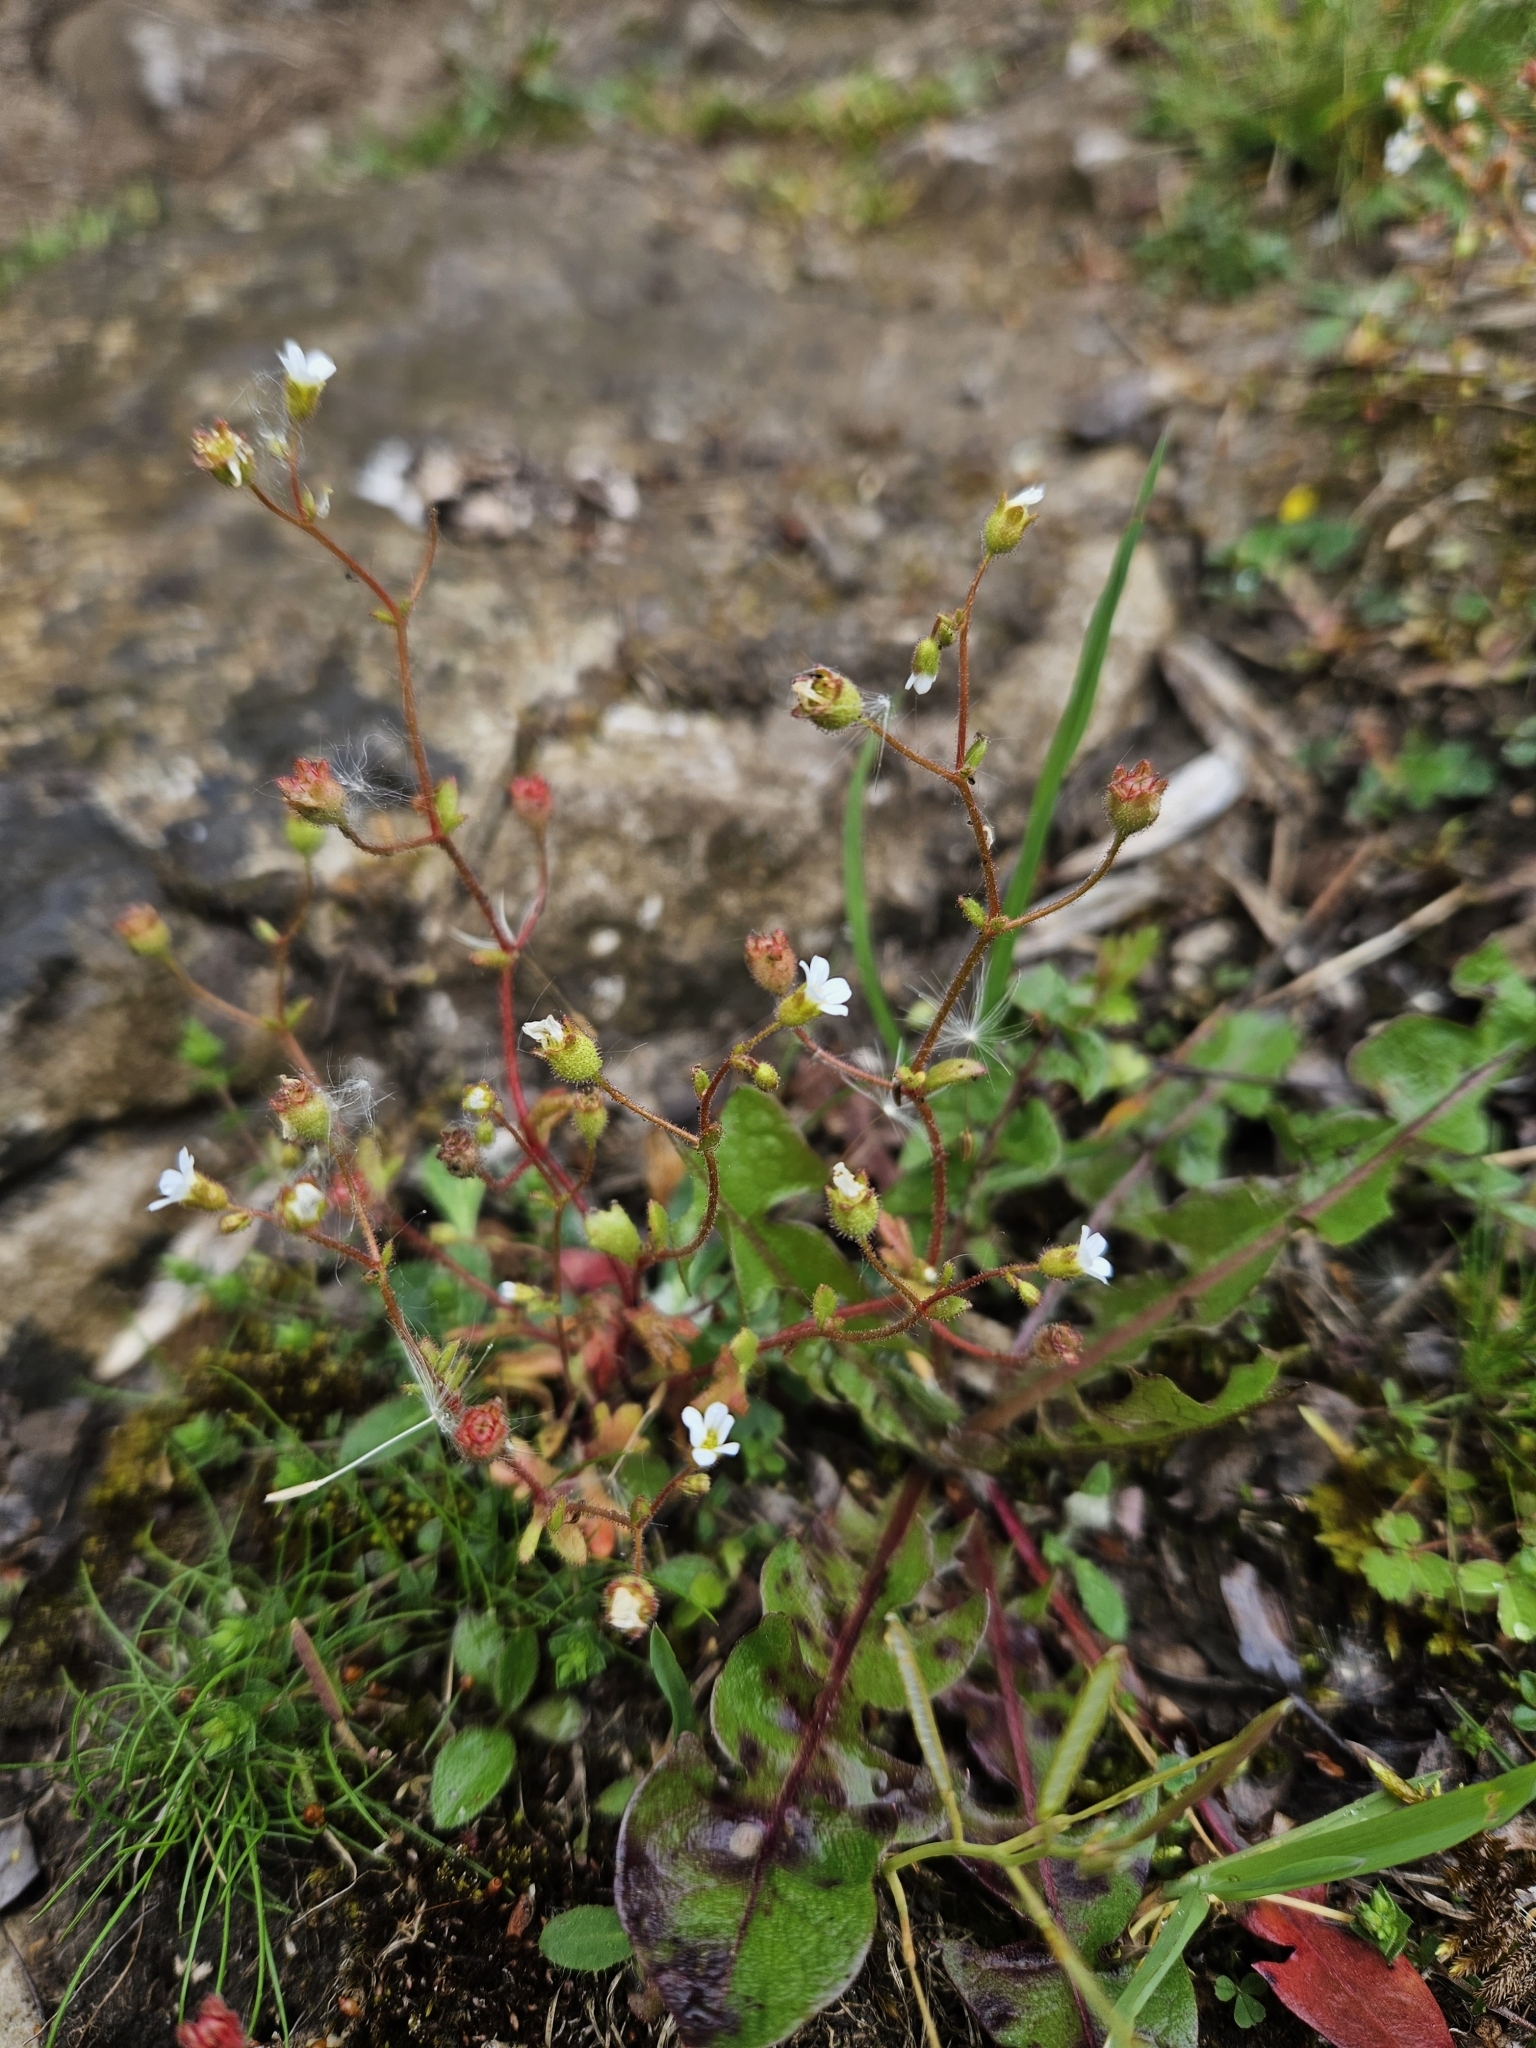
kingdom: Plantae
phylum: Tracheophyta
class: Magnoliopsida
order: Saxifragales
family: Saxifragaceae
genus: Saxifraga
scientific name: Saxifraga tridactylites
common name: Rue-leaved saxifrage
